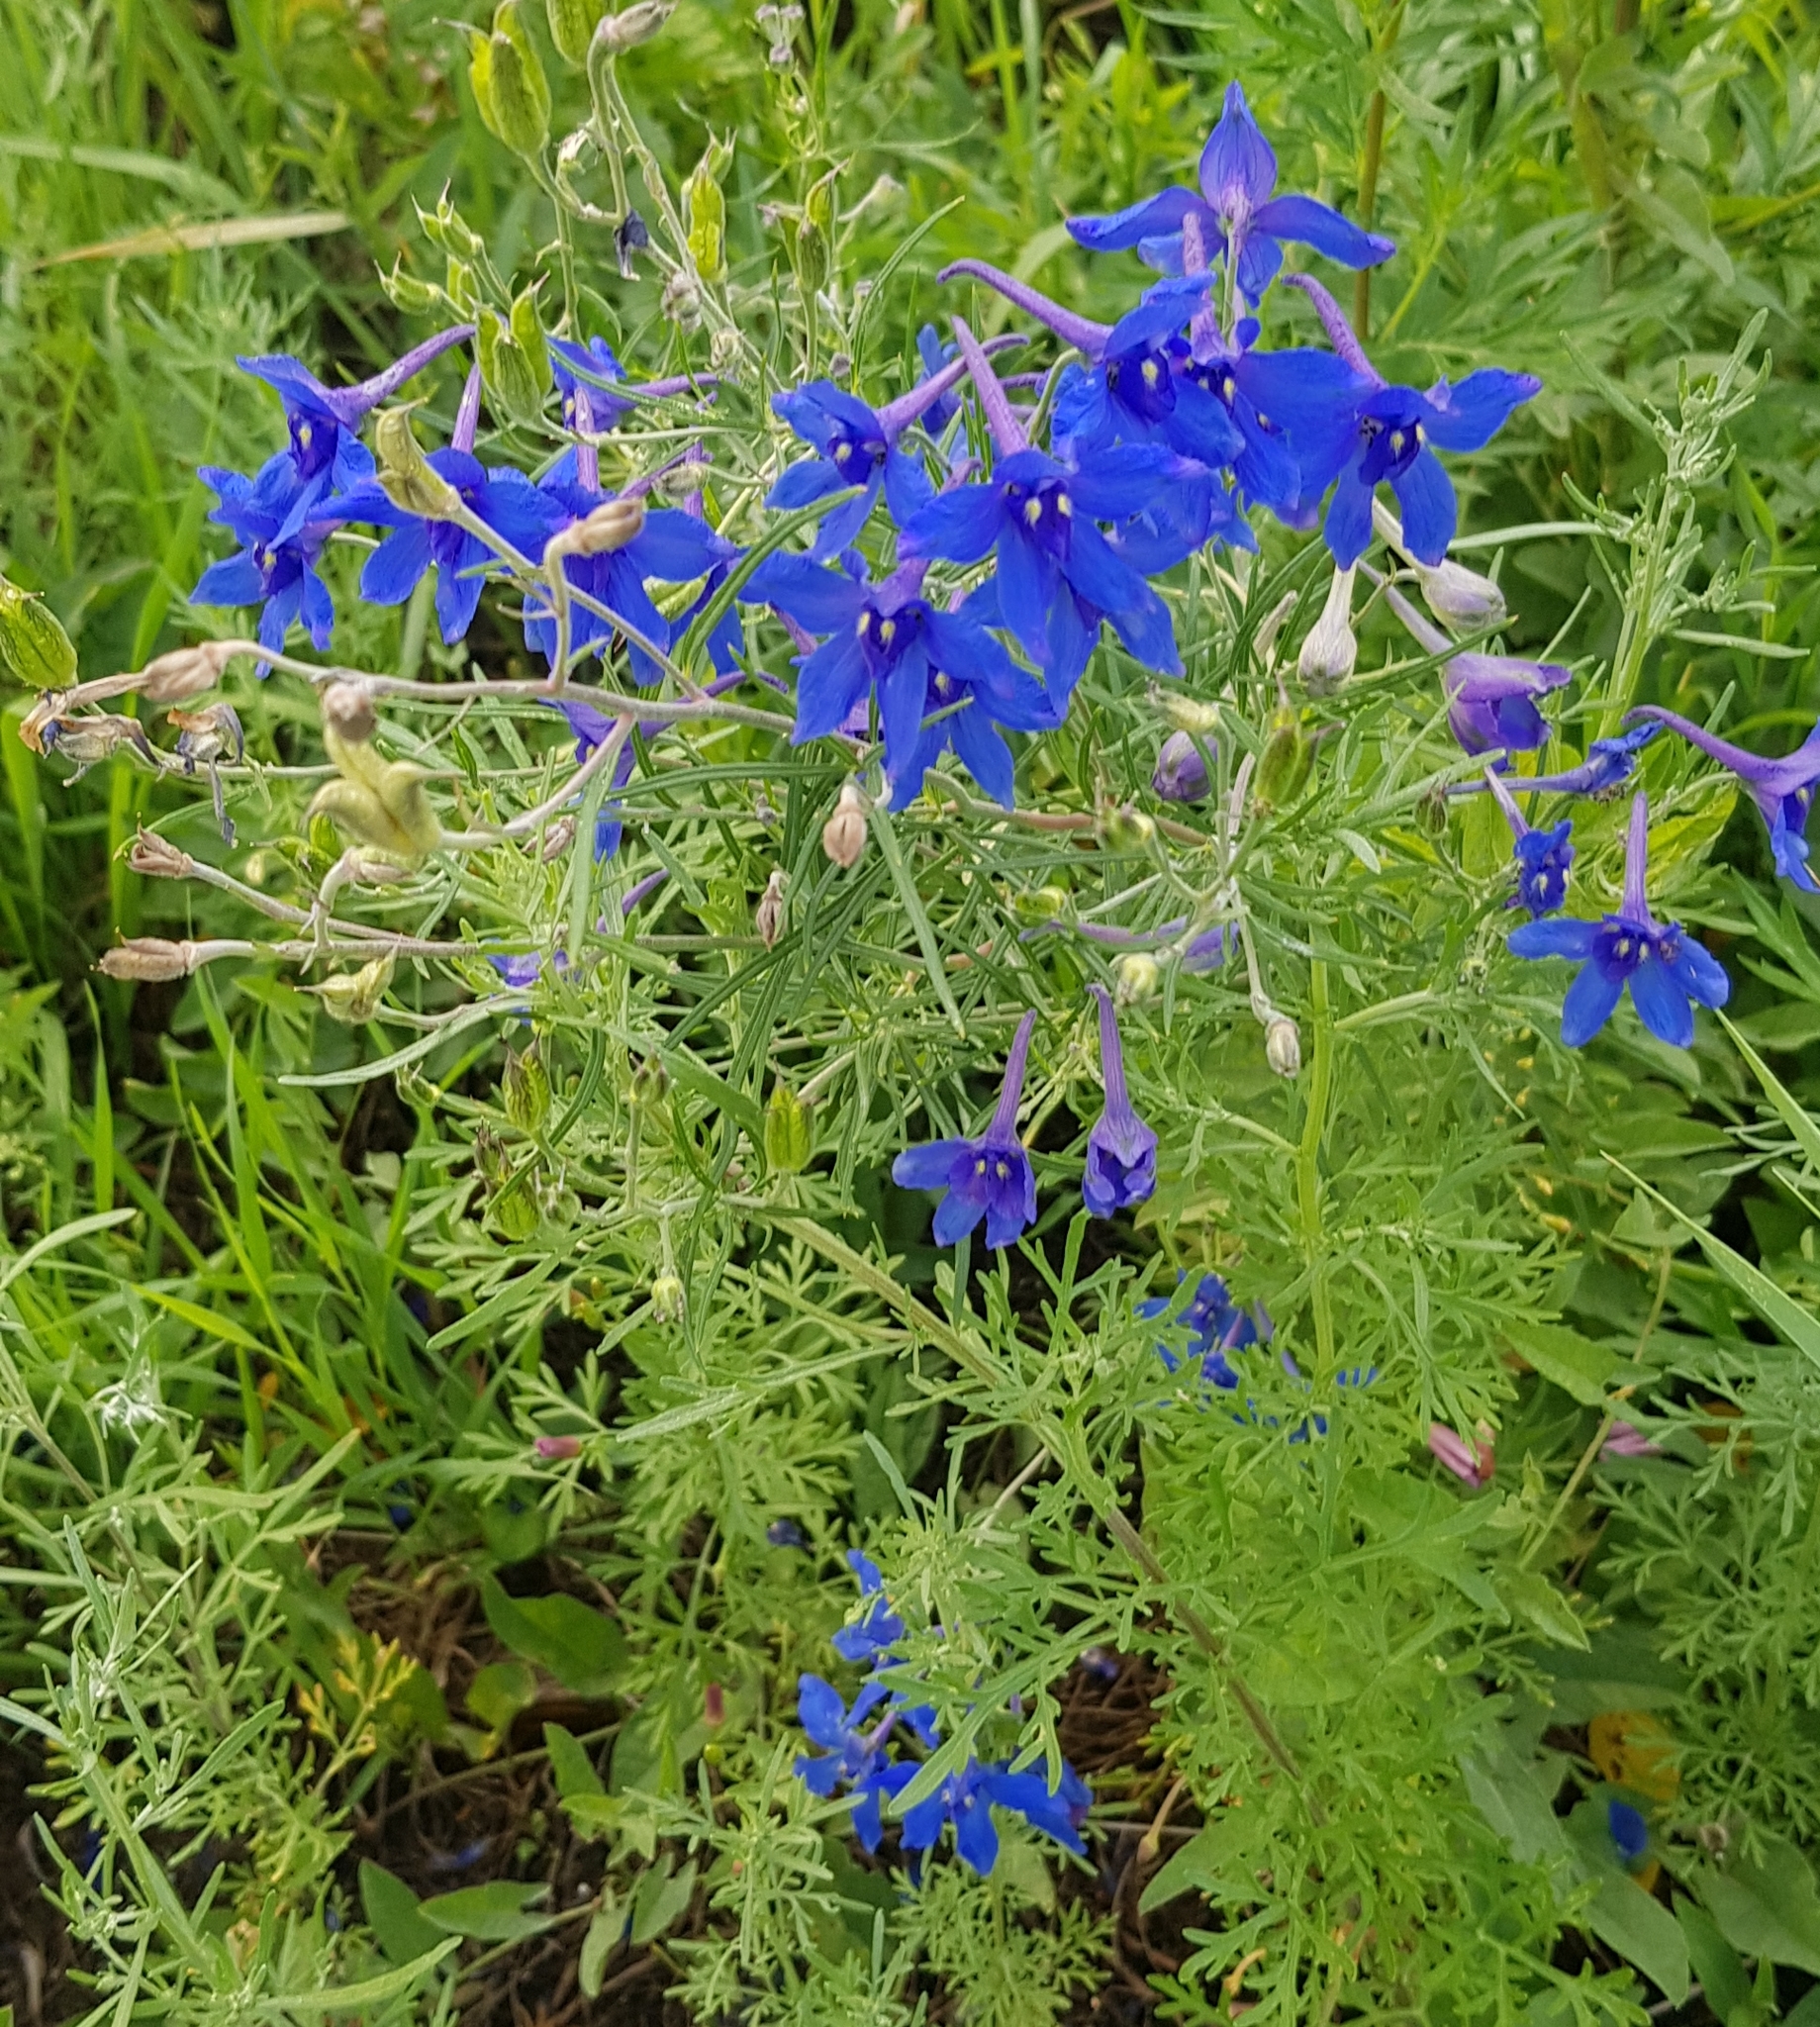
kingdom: Plantae
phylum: Tracheophyta
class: Magnoliopsida
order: Ranunculales
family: Ranunculaceae
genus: Delphinium
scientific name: Delphinium grandiflorum
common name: Siberian larkspur
